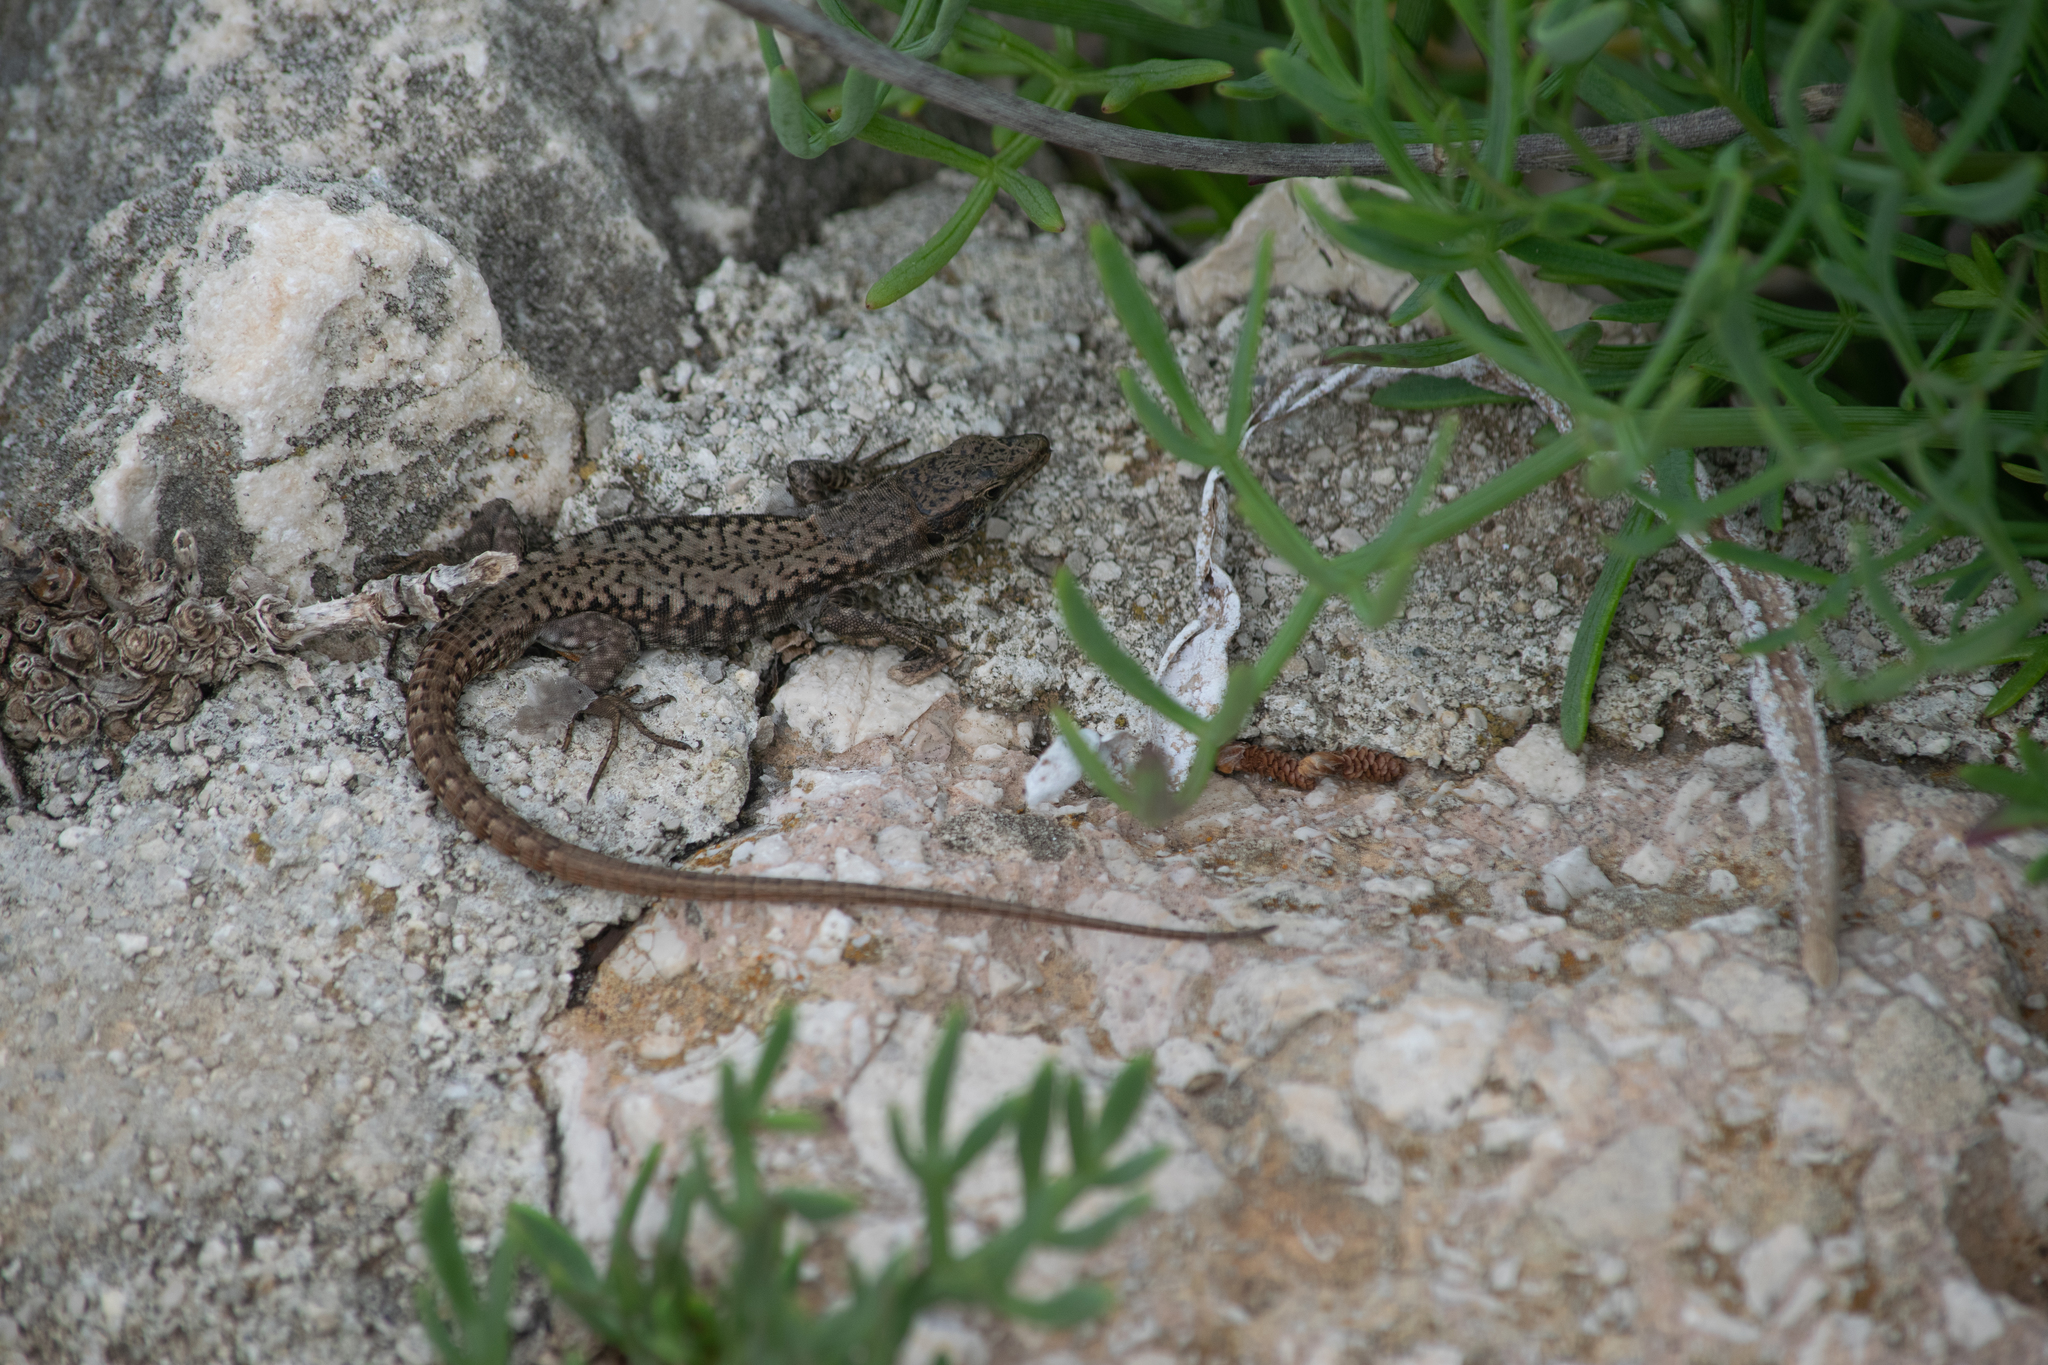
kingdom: Animalia
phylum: Chordata
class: Squamata
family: Lacertidae
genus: Podarcis
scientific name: Podarcis muralis
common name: Common wall lizard
